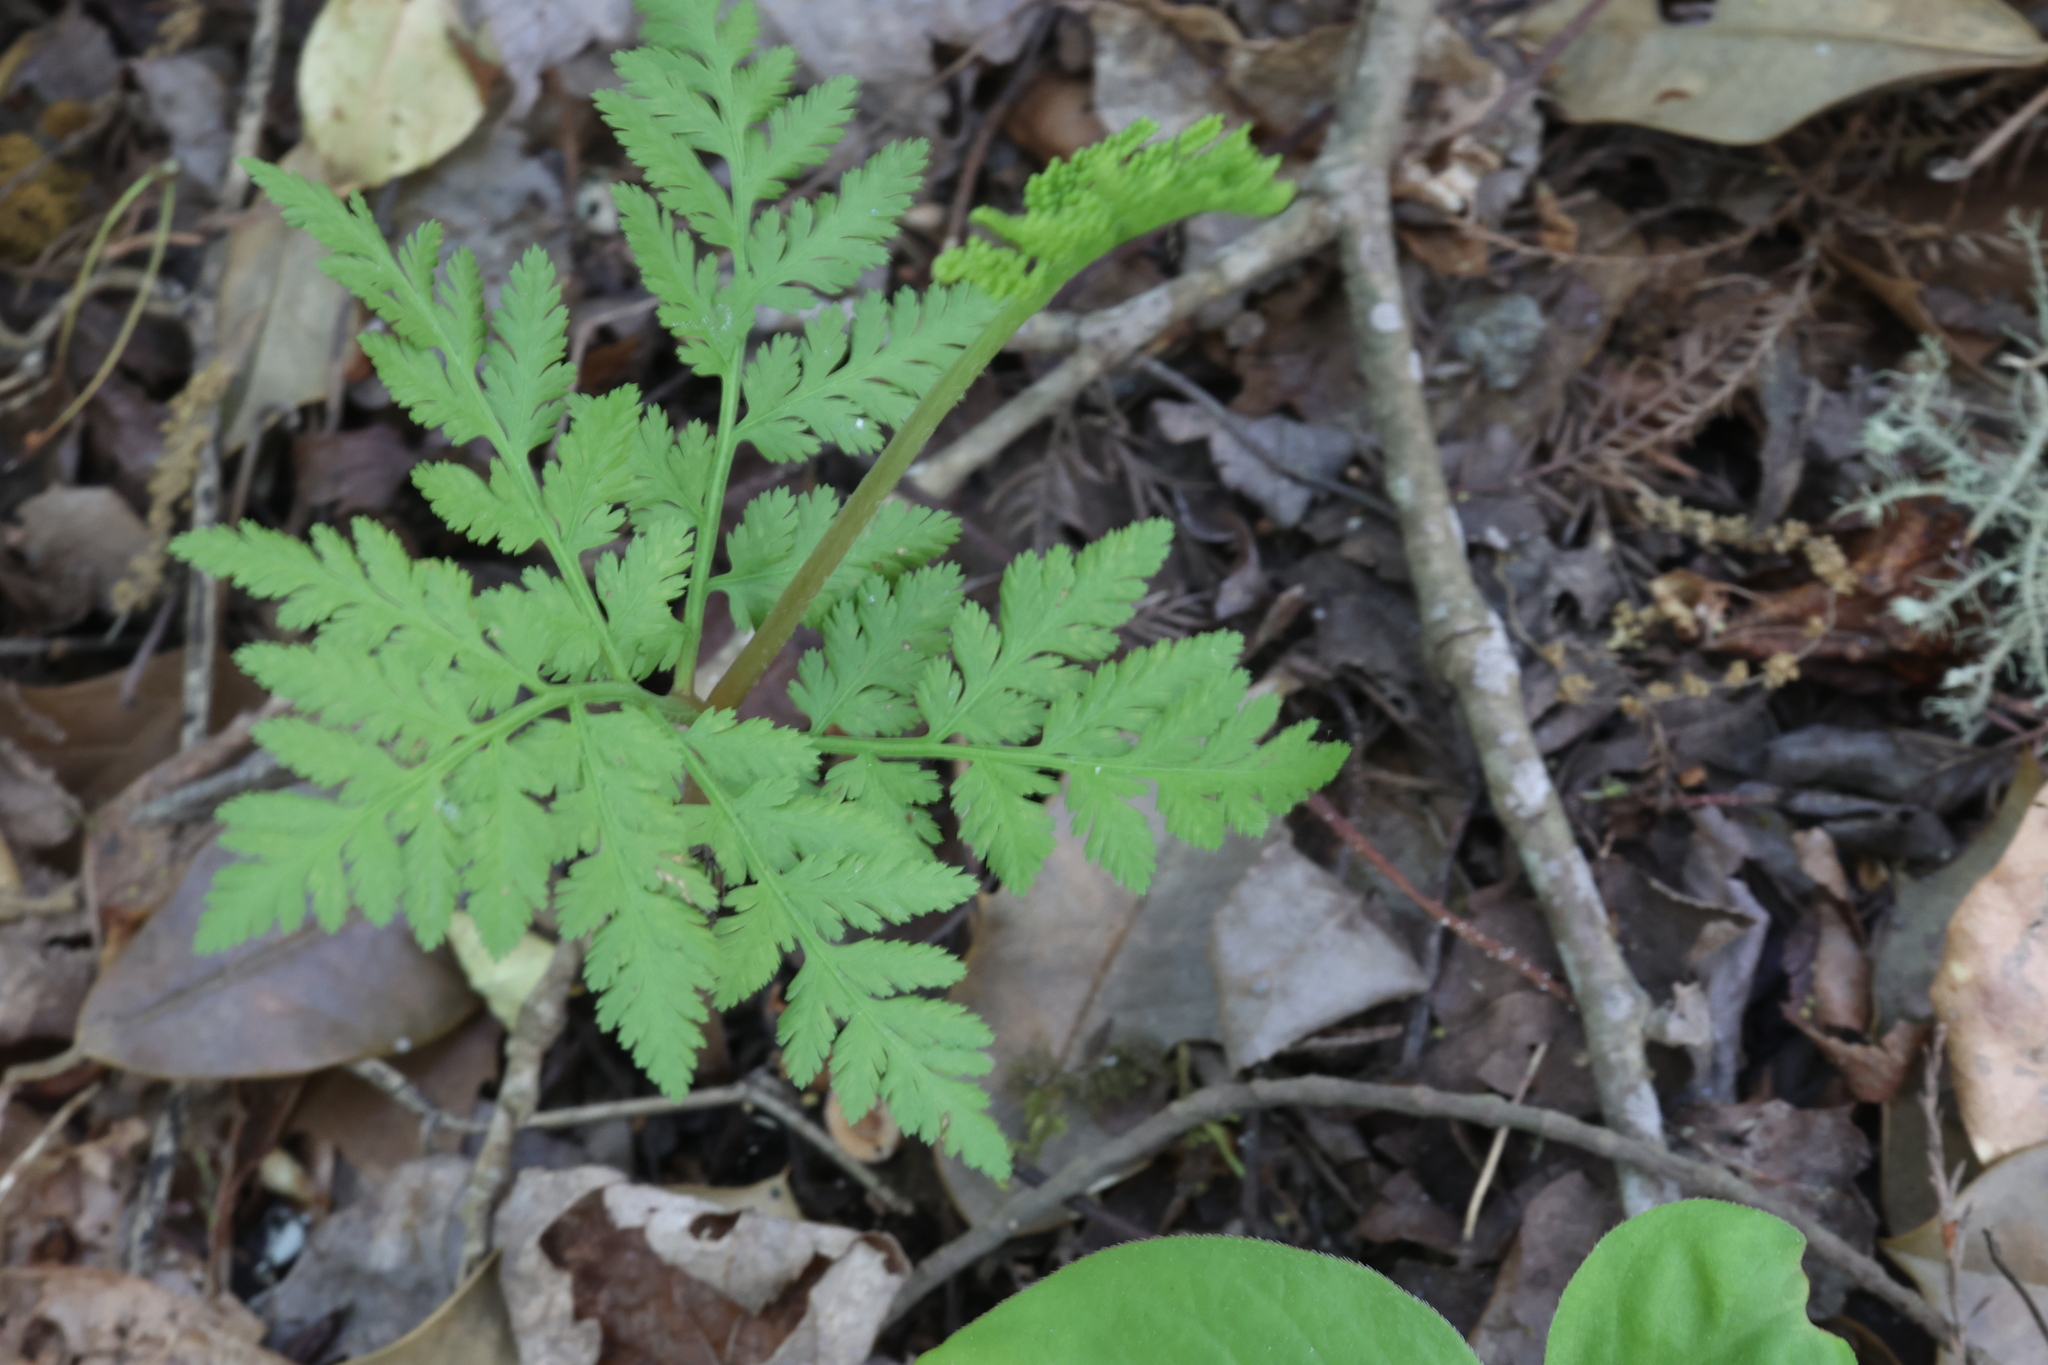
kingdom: Plantae
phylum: Tracheophyta
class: Polypodiopsida
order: Ophioglossales
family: Ophioglossaceae
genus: Botrypus
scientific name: Botrypus virginianus
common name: Common grapefern
